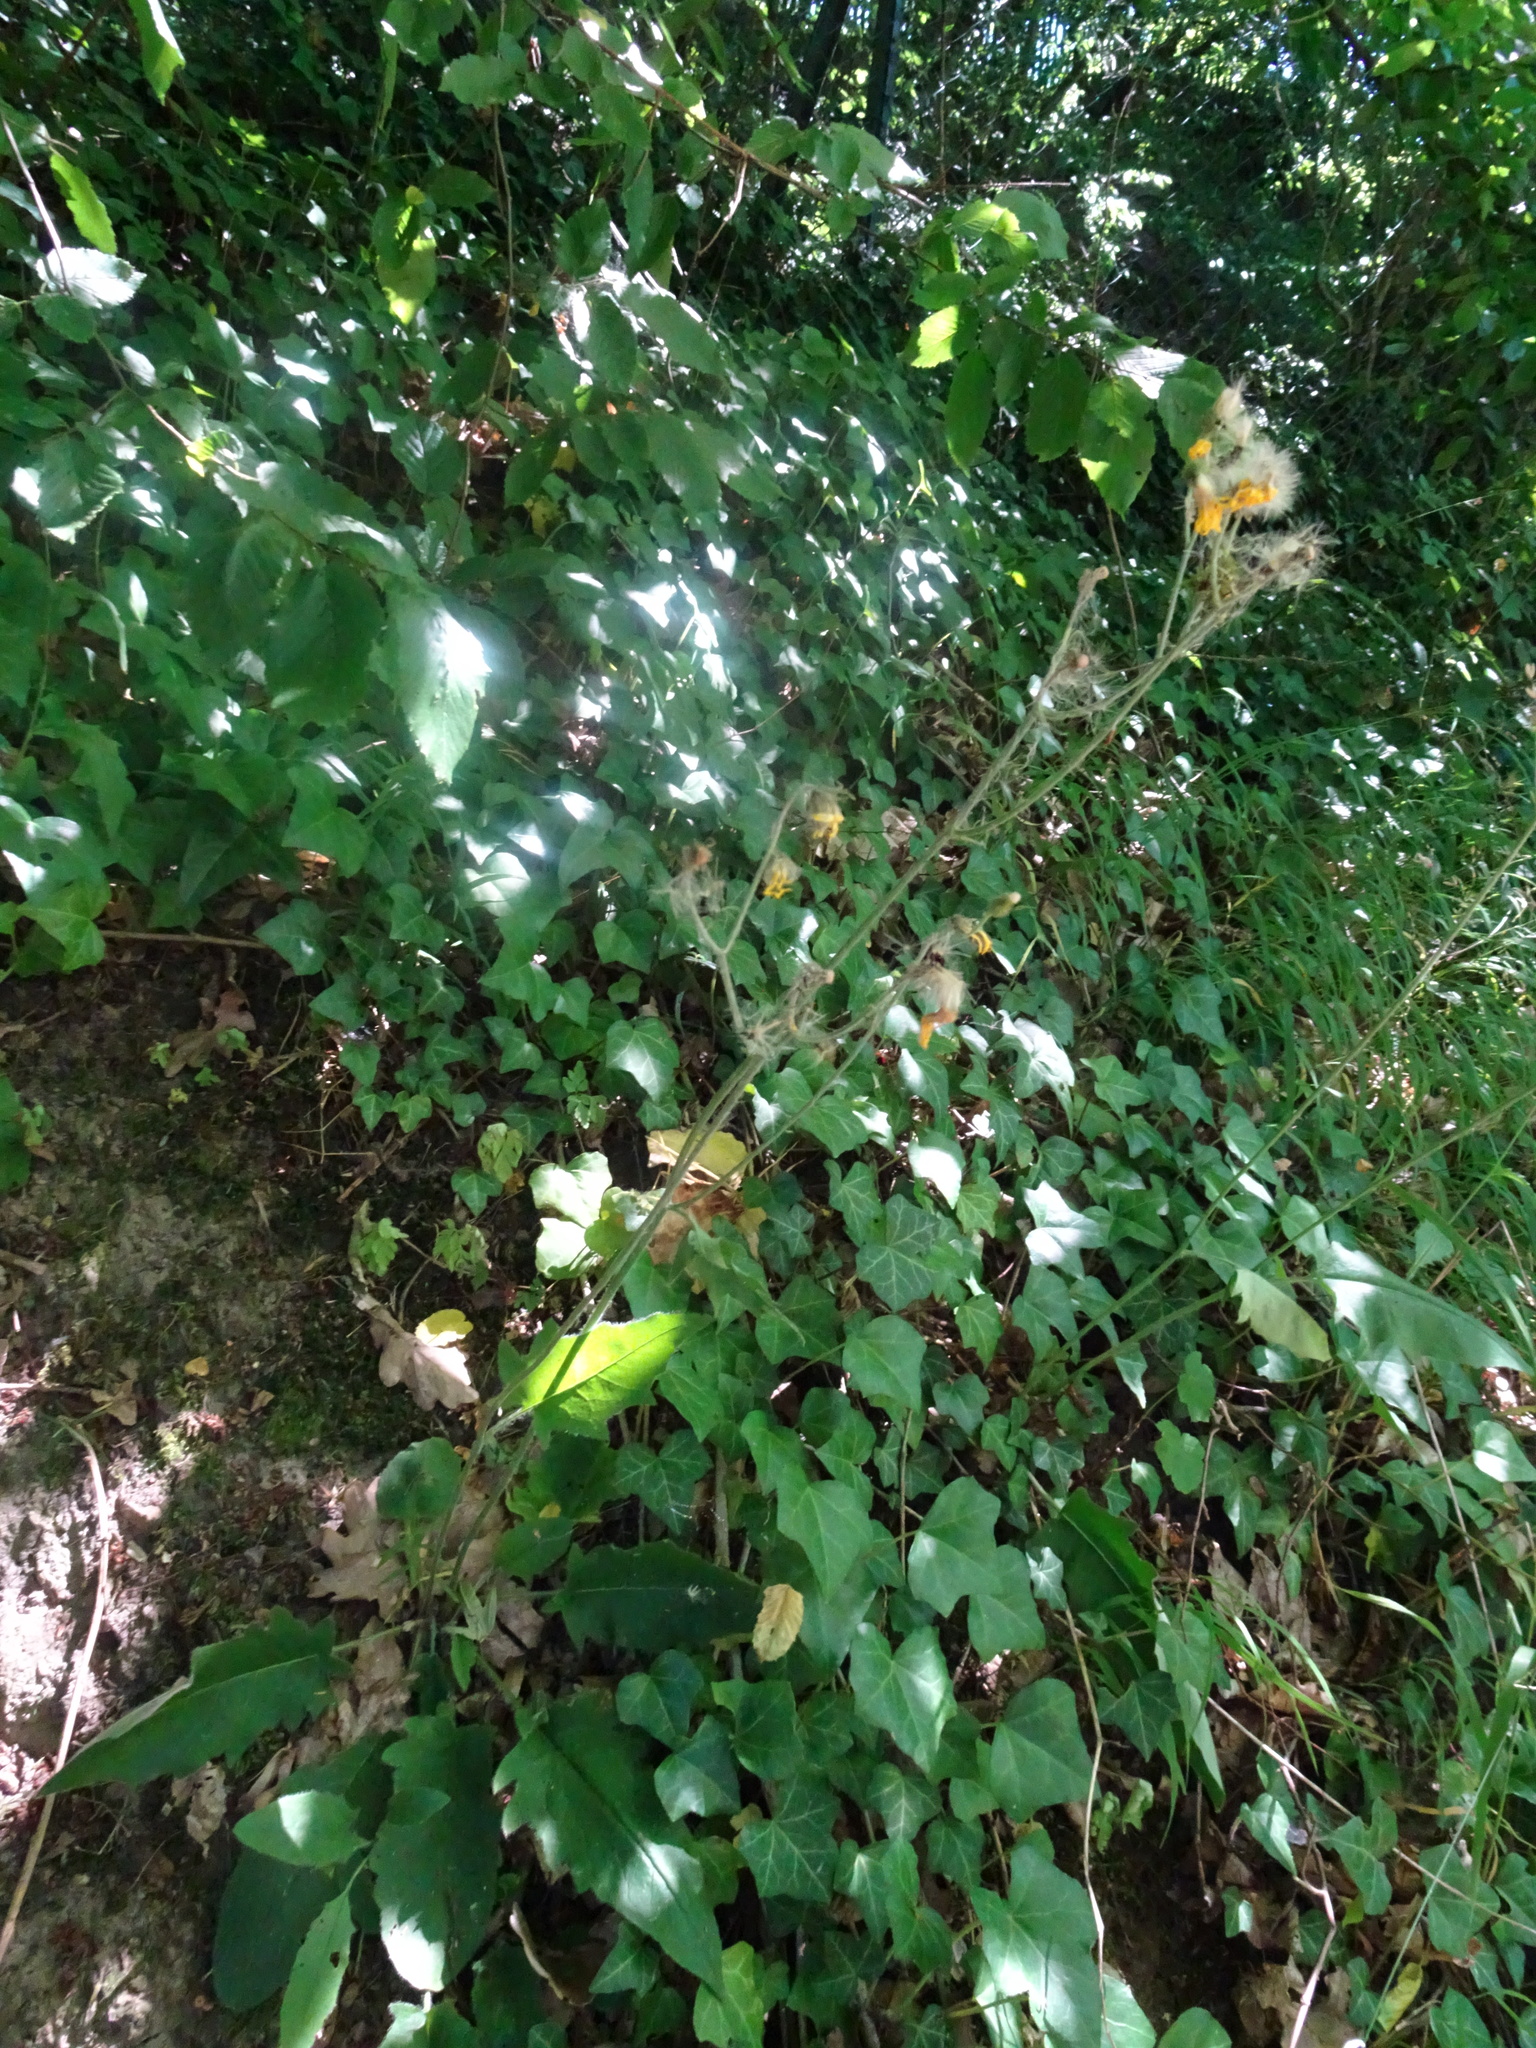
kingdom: Plantae
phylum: Tracheophyta
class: Magnoliopsida
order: Asterales
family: Asteraceae
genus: Hieracium
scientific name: Hieracium murorum
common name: Wall hawkweed
